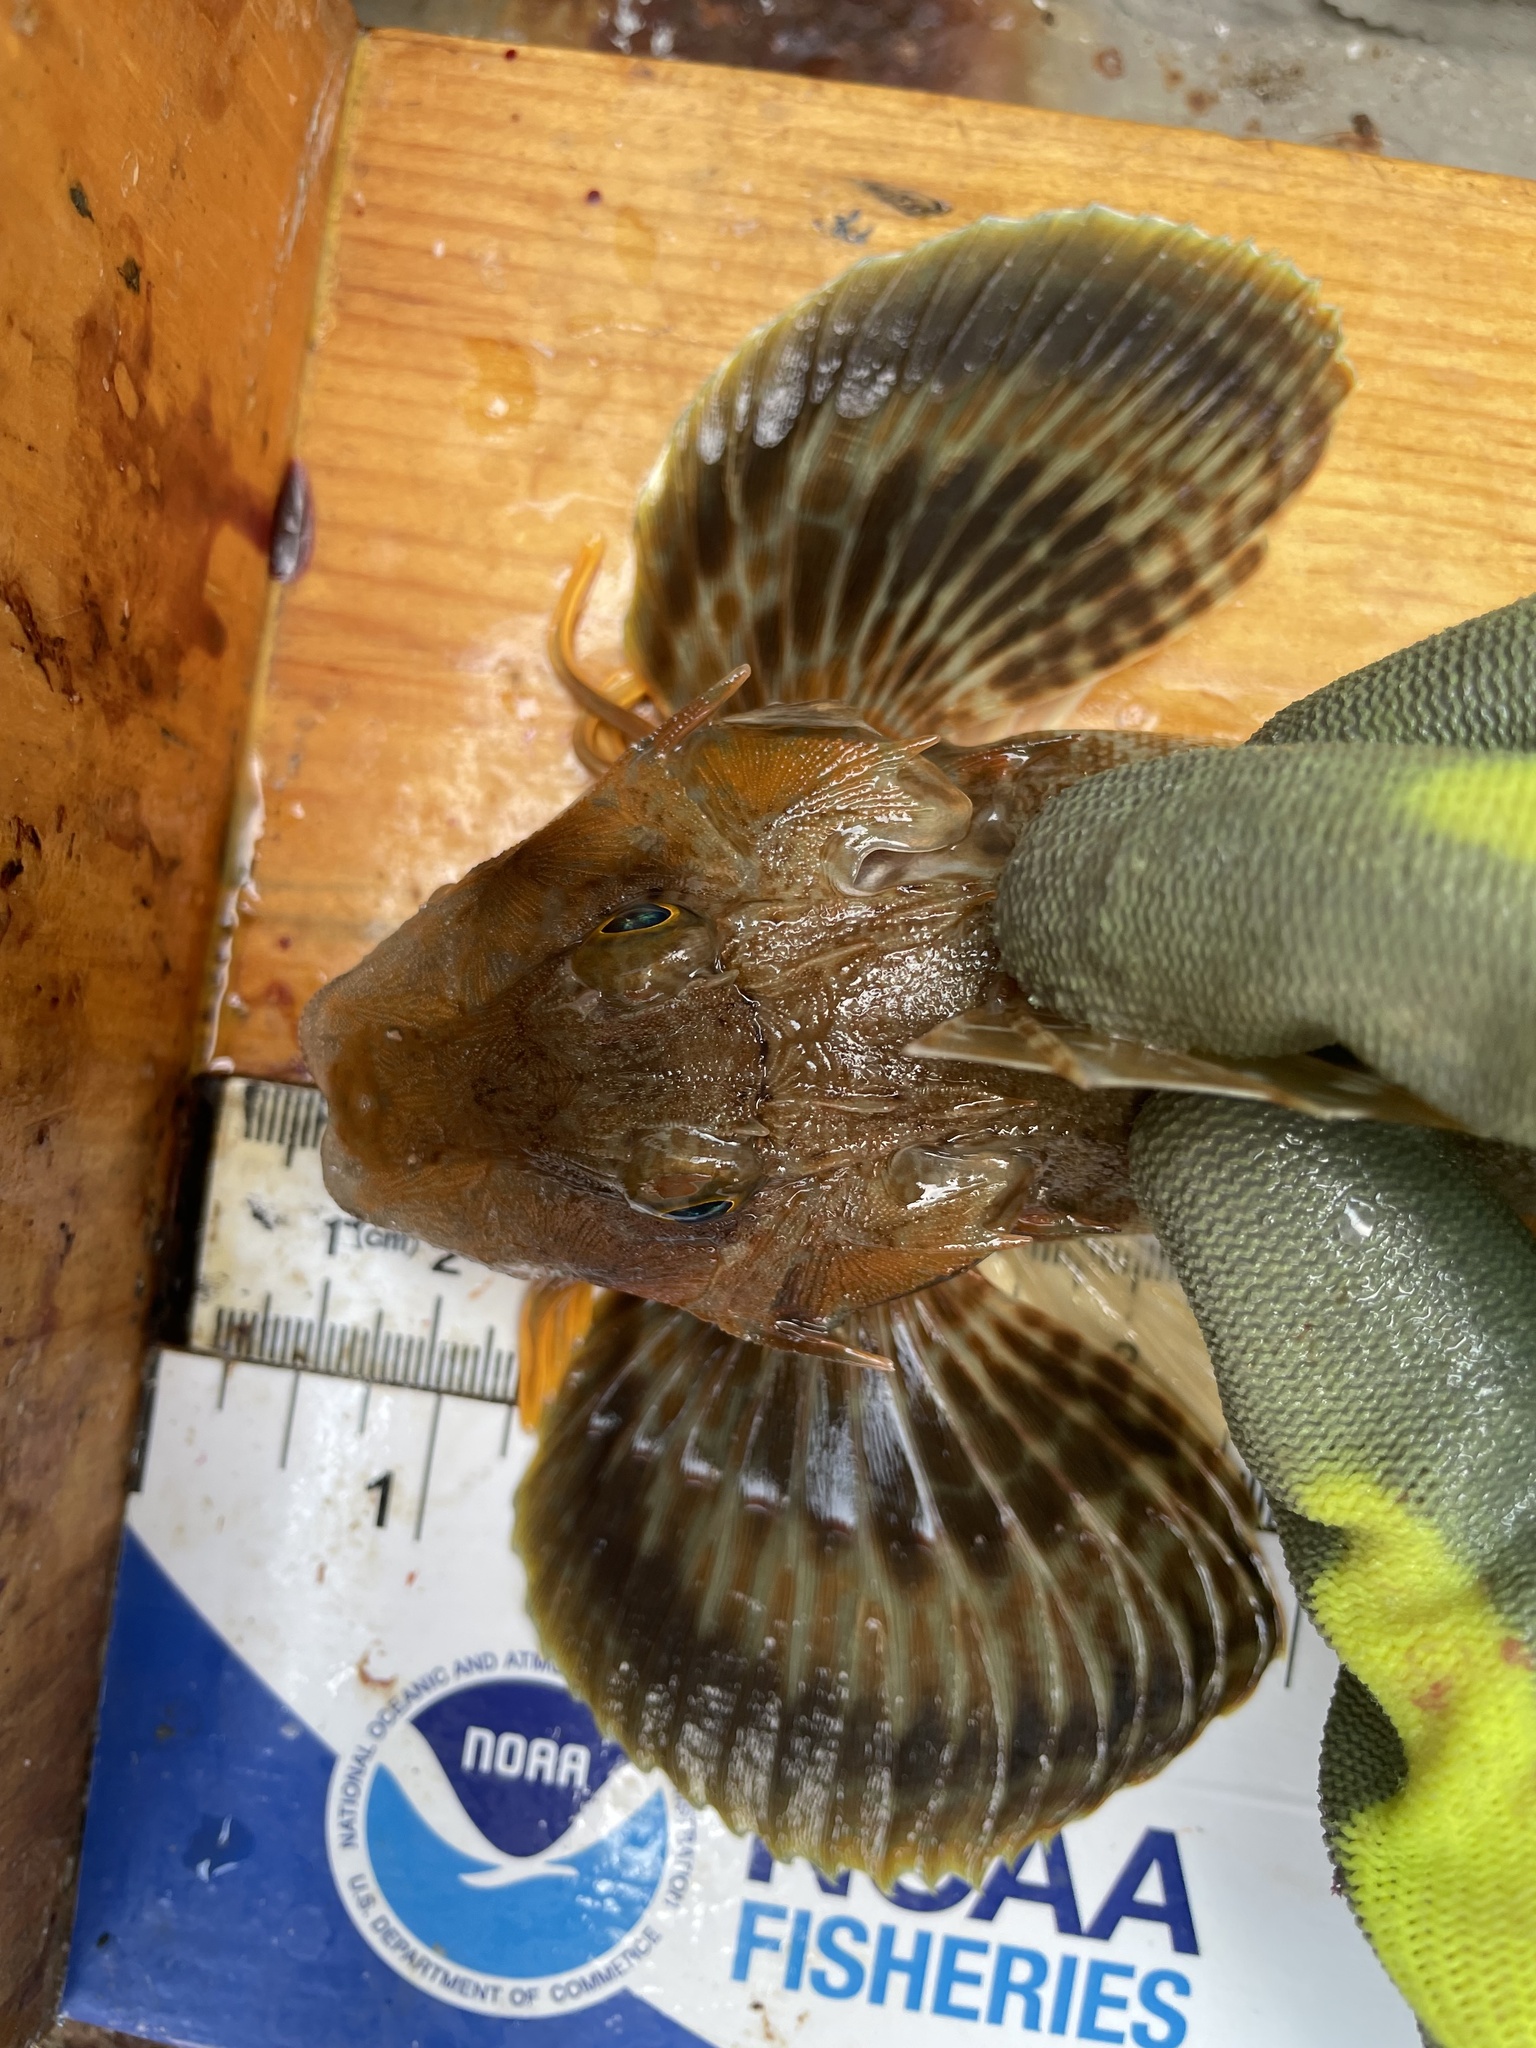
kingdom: Animalia
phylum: Chordata
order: Scorpaeniformes
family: Triglidae
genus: Prionotus
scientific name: Prionotus carolinus
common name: Northern searobin
